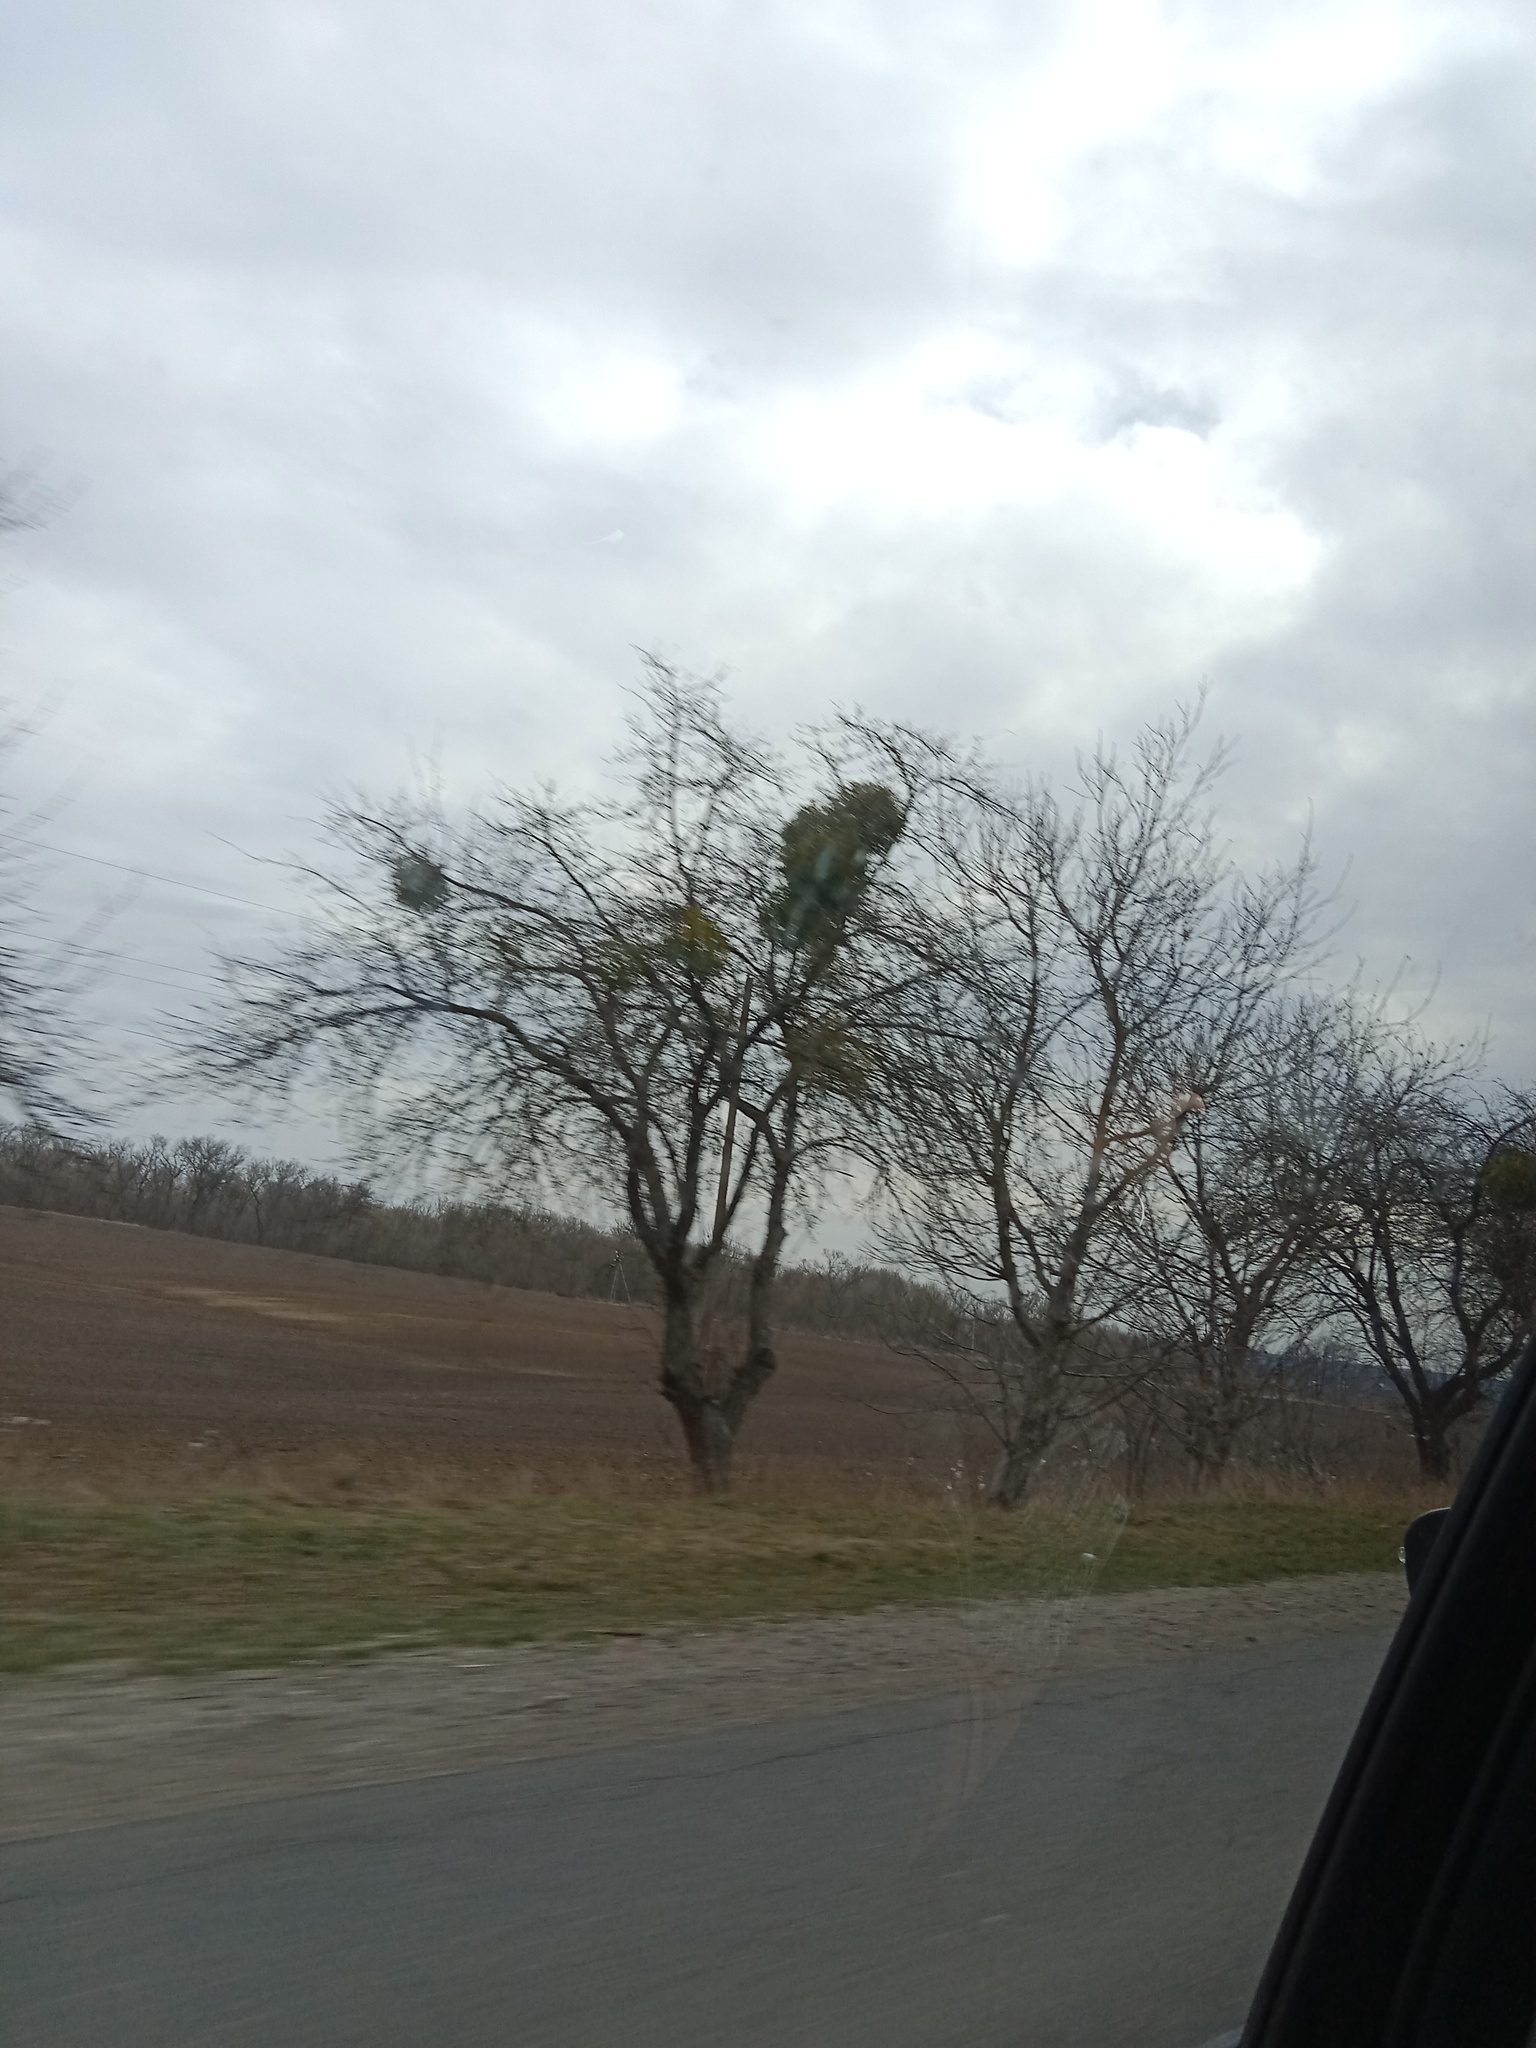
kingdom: Plantae
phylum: Tracheophyta
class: Magnoliopsida
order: Santalales
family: Viscaceae
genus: Viscum
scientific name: Viscum album
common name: Mistletoe
